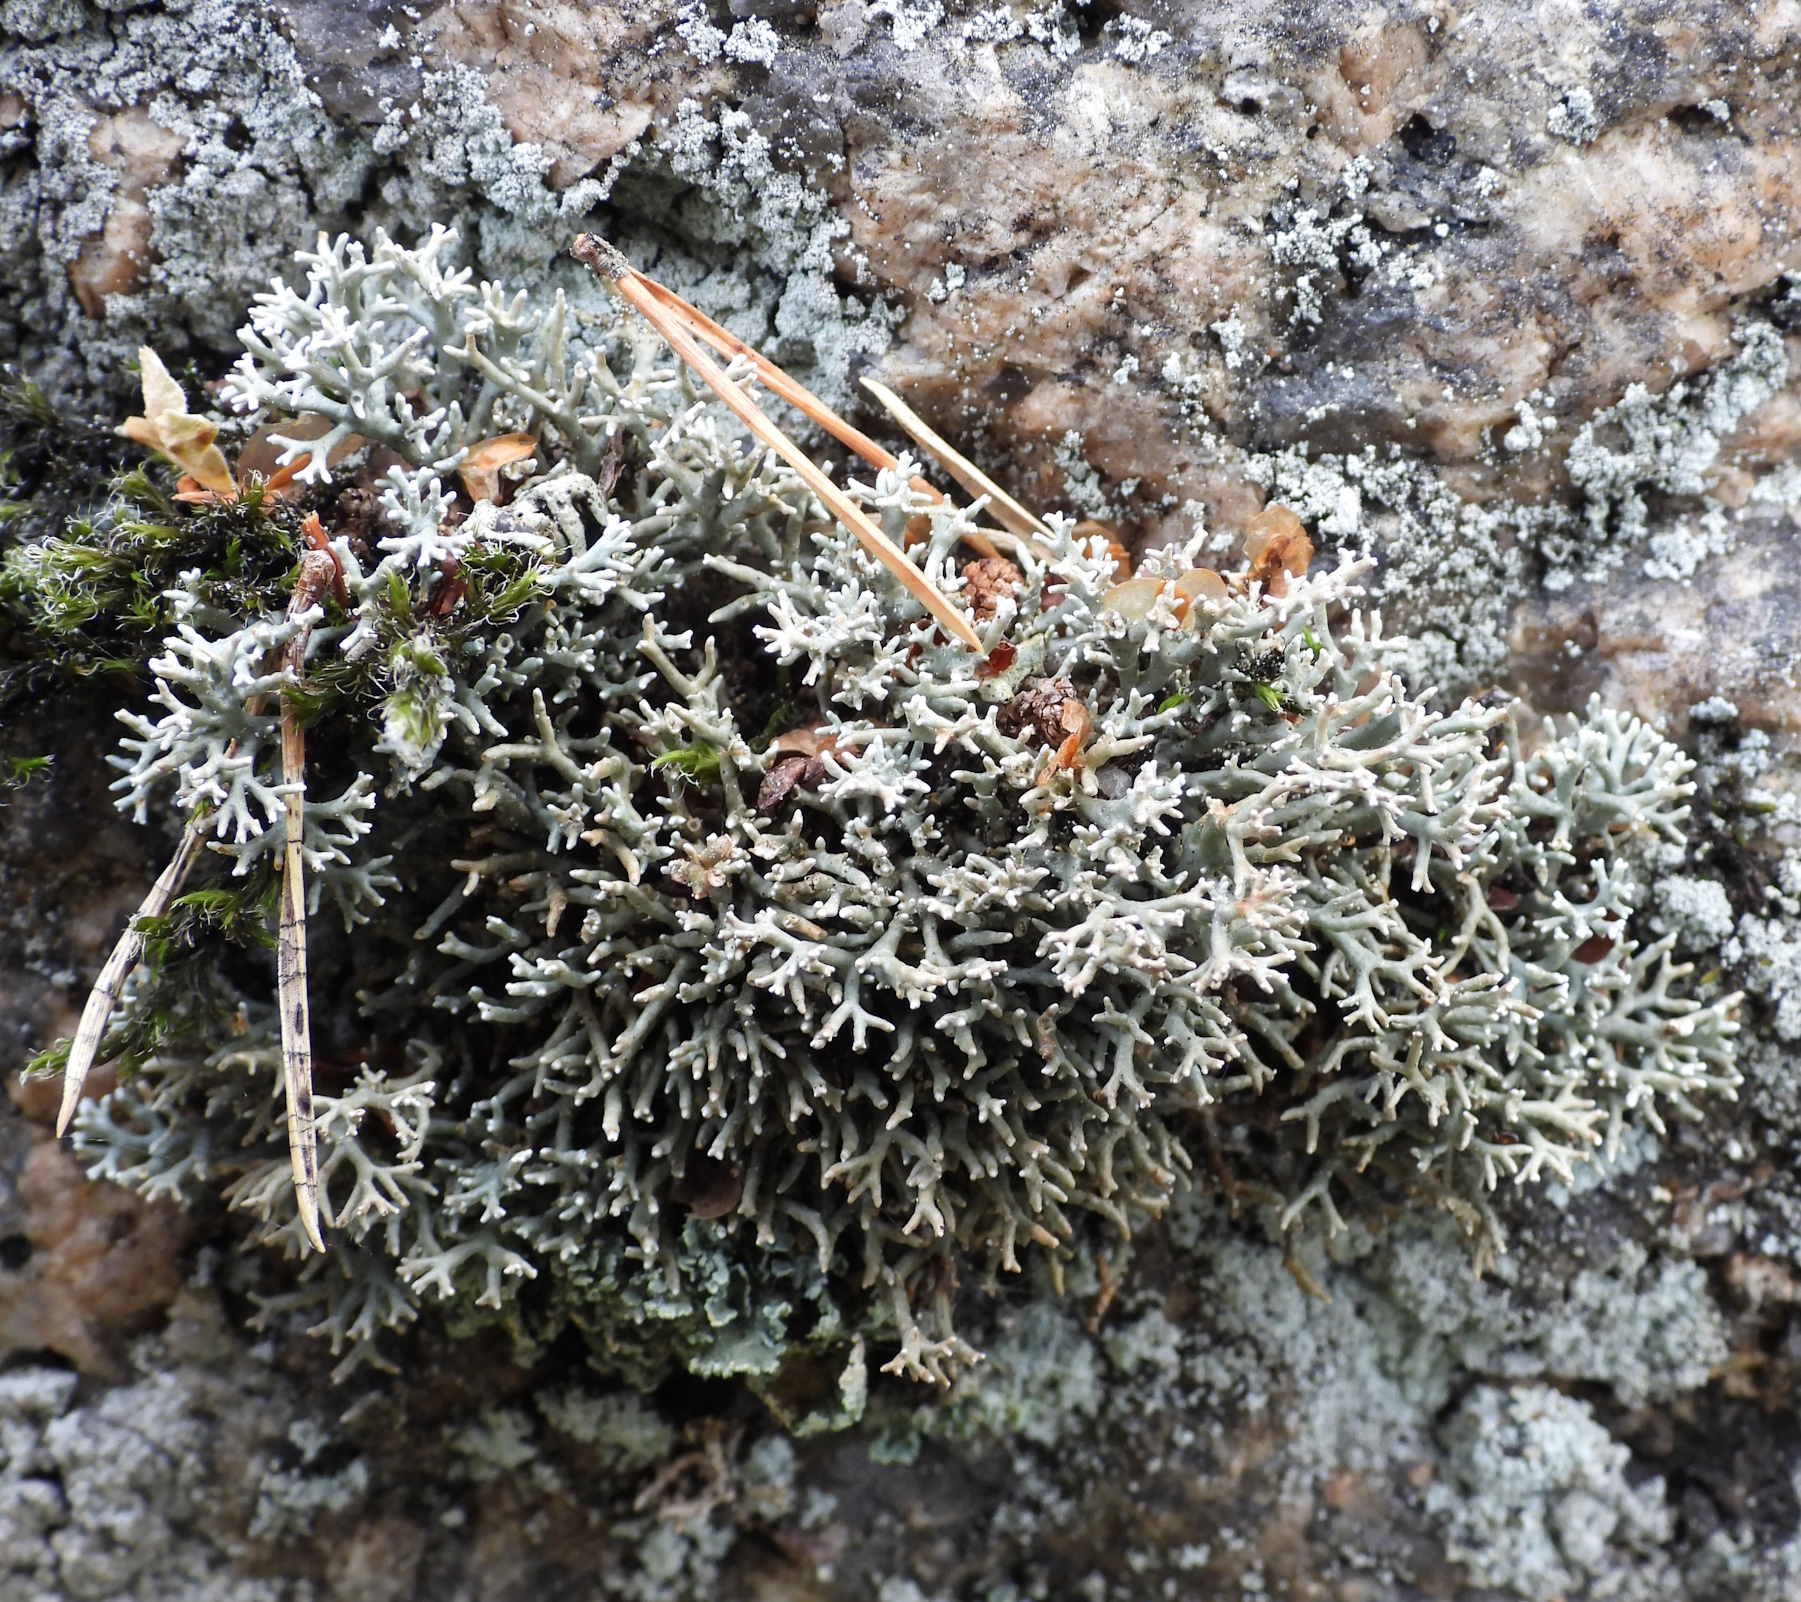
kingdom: Fungi
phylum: Ascomycota
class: Lecanoromycetes
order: Lecanorales
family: Sphaerophoraceae
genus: Sphaerophorus
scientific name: Sphaerophorus fragilis
